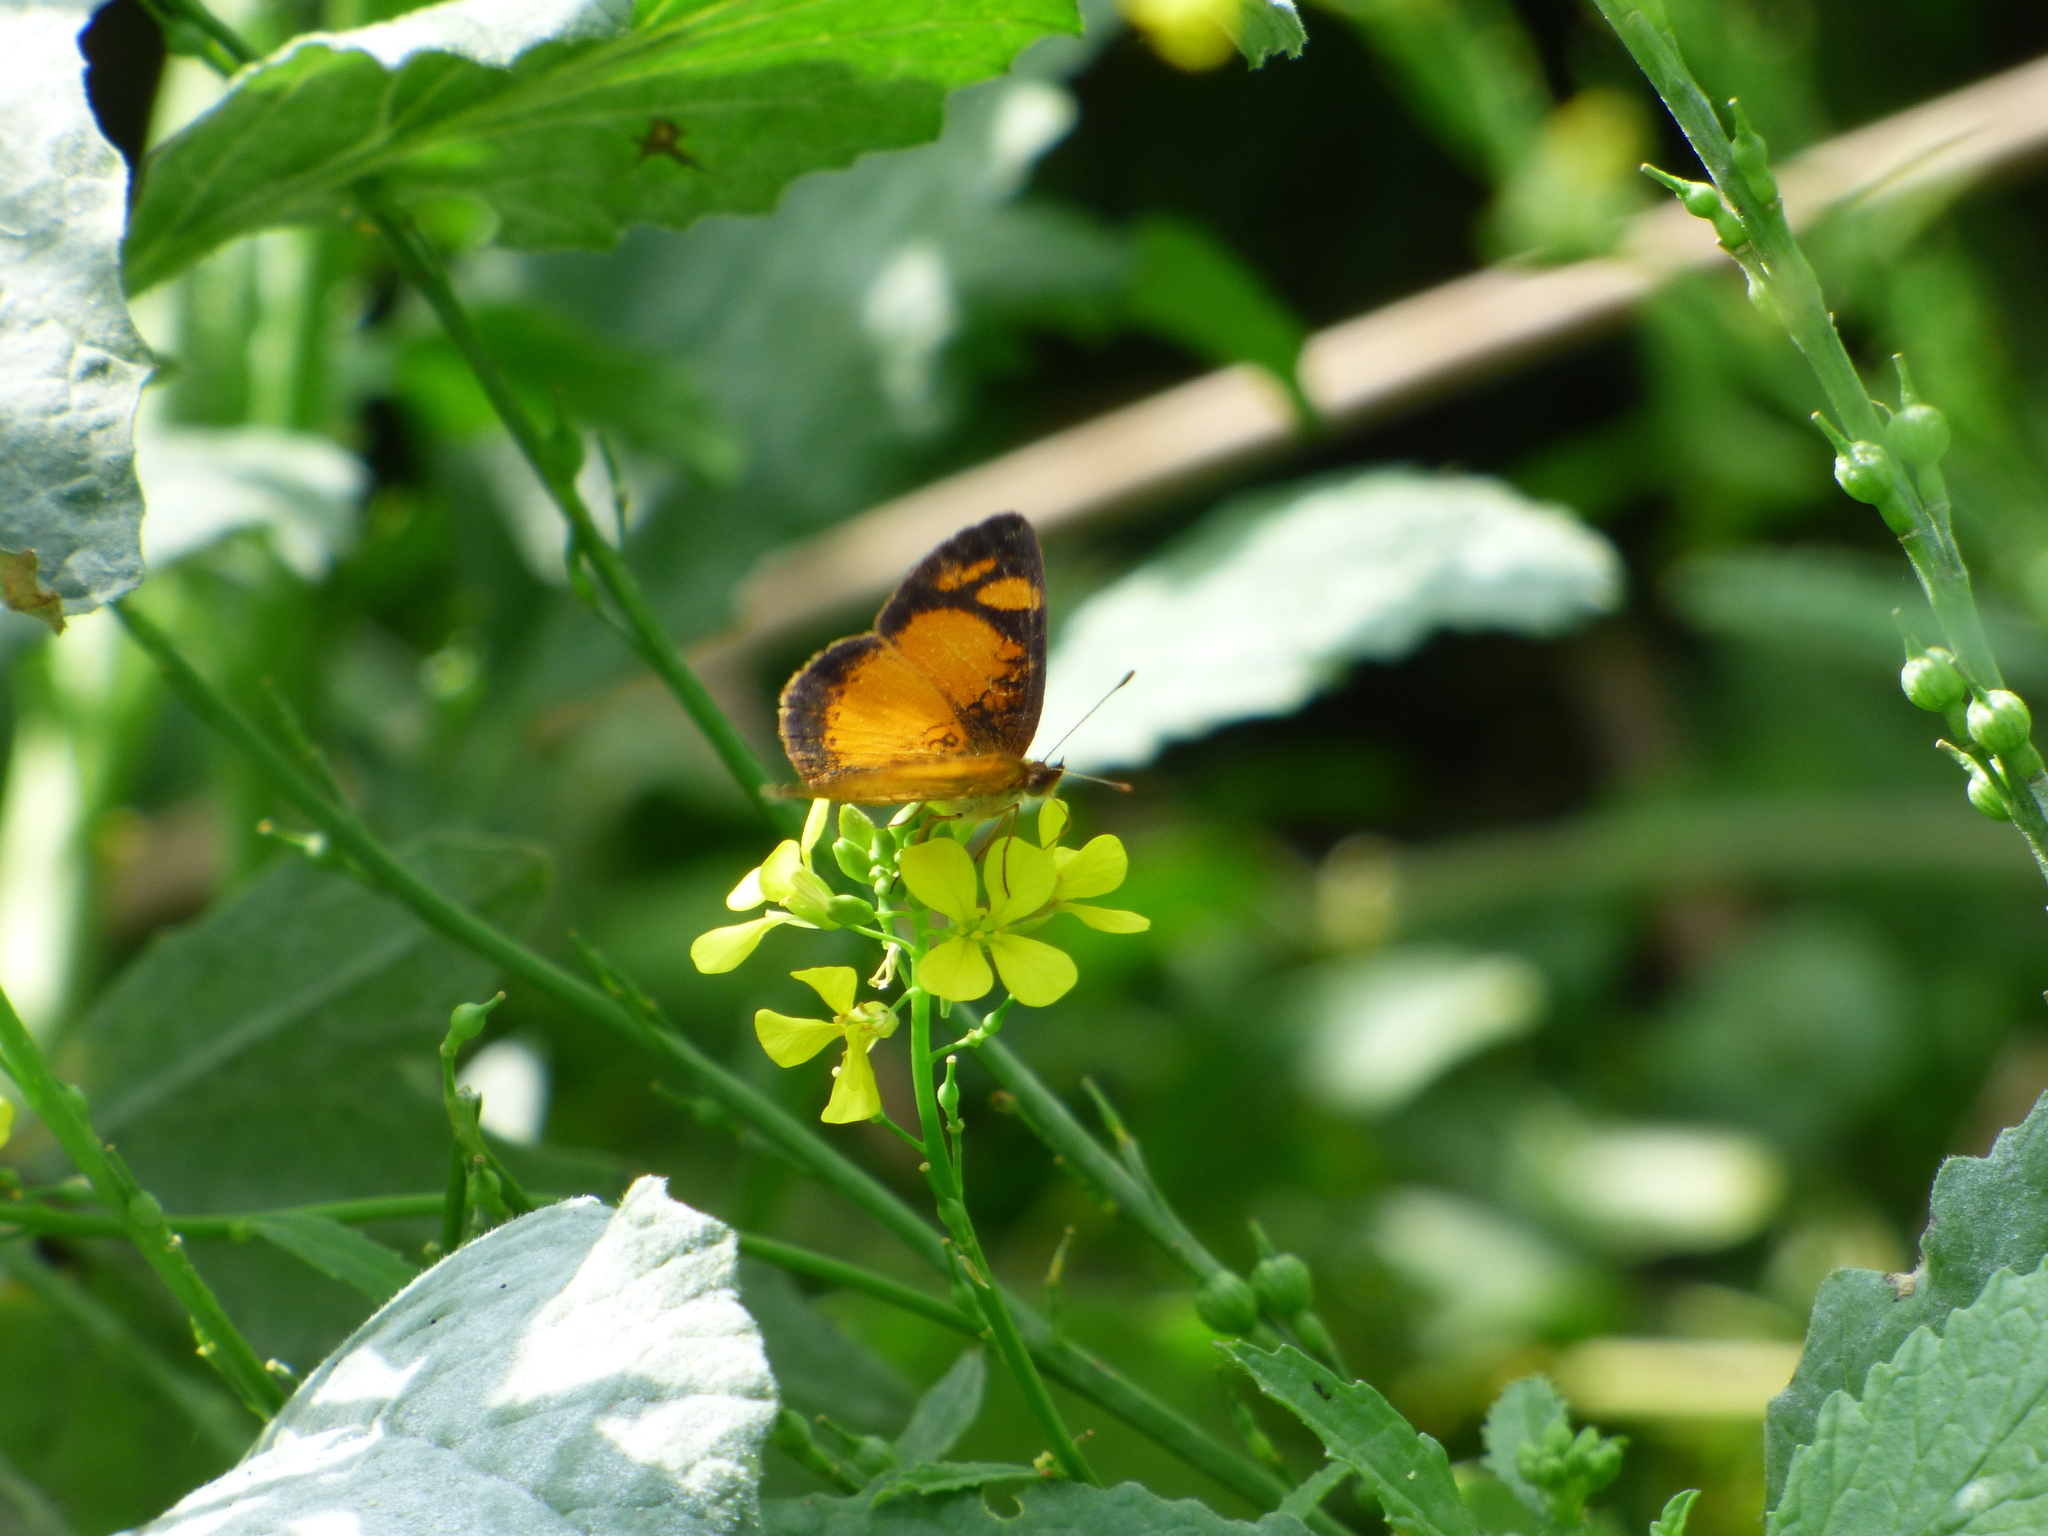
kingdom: Animalia
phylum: Arthropoda
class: Insecta
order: Lepidoptera
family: Nymphalidae
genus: Tegosa
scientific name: Tegosa claudina
